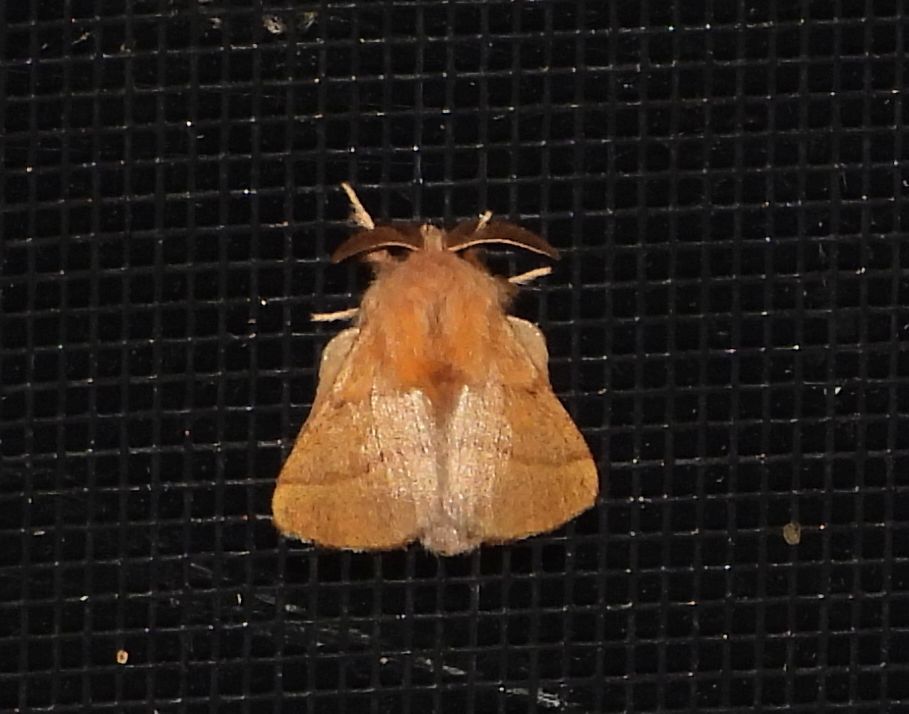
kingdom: Animalia
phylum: Arthropoda
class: Insecta
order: Lepidoptera
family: Lasiocampidae
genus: Malacosoma
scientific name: Malacosoma disstria
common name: Forest tent caterpillar
